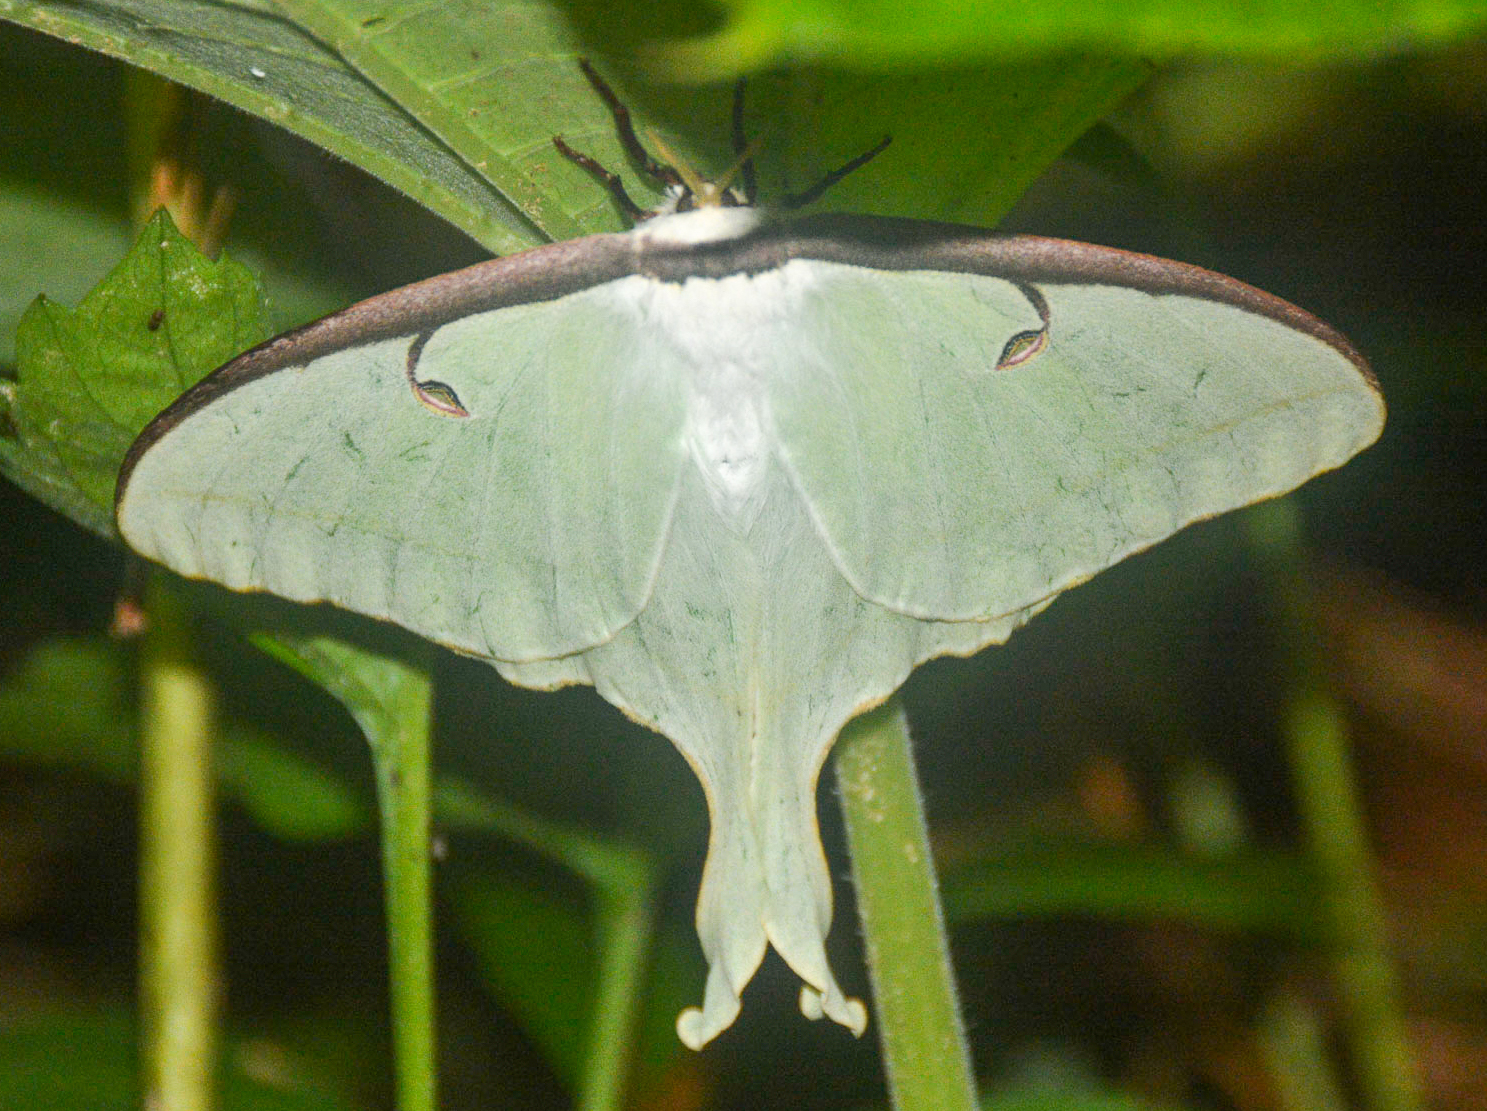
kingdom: Animalia
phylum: Arthropoda
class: Insecta
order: Lepidoptera
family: Saturniidae
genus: Actias
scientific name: Actias luna
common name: Luna moth
